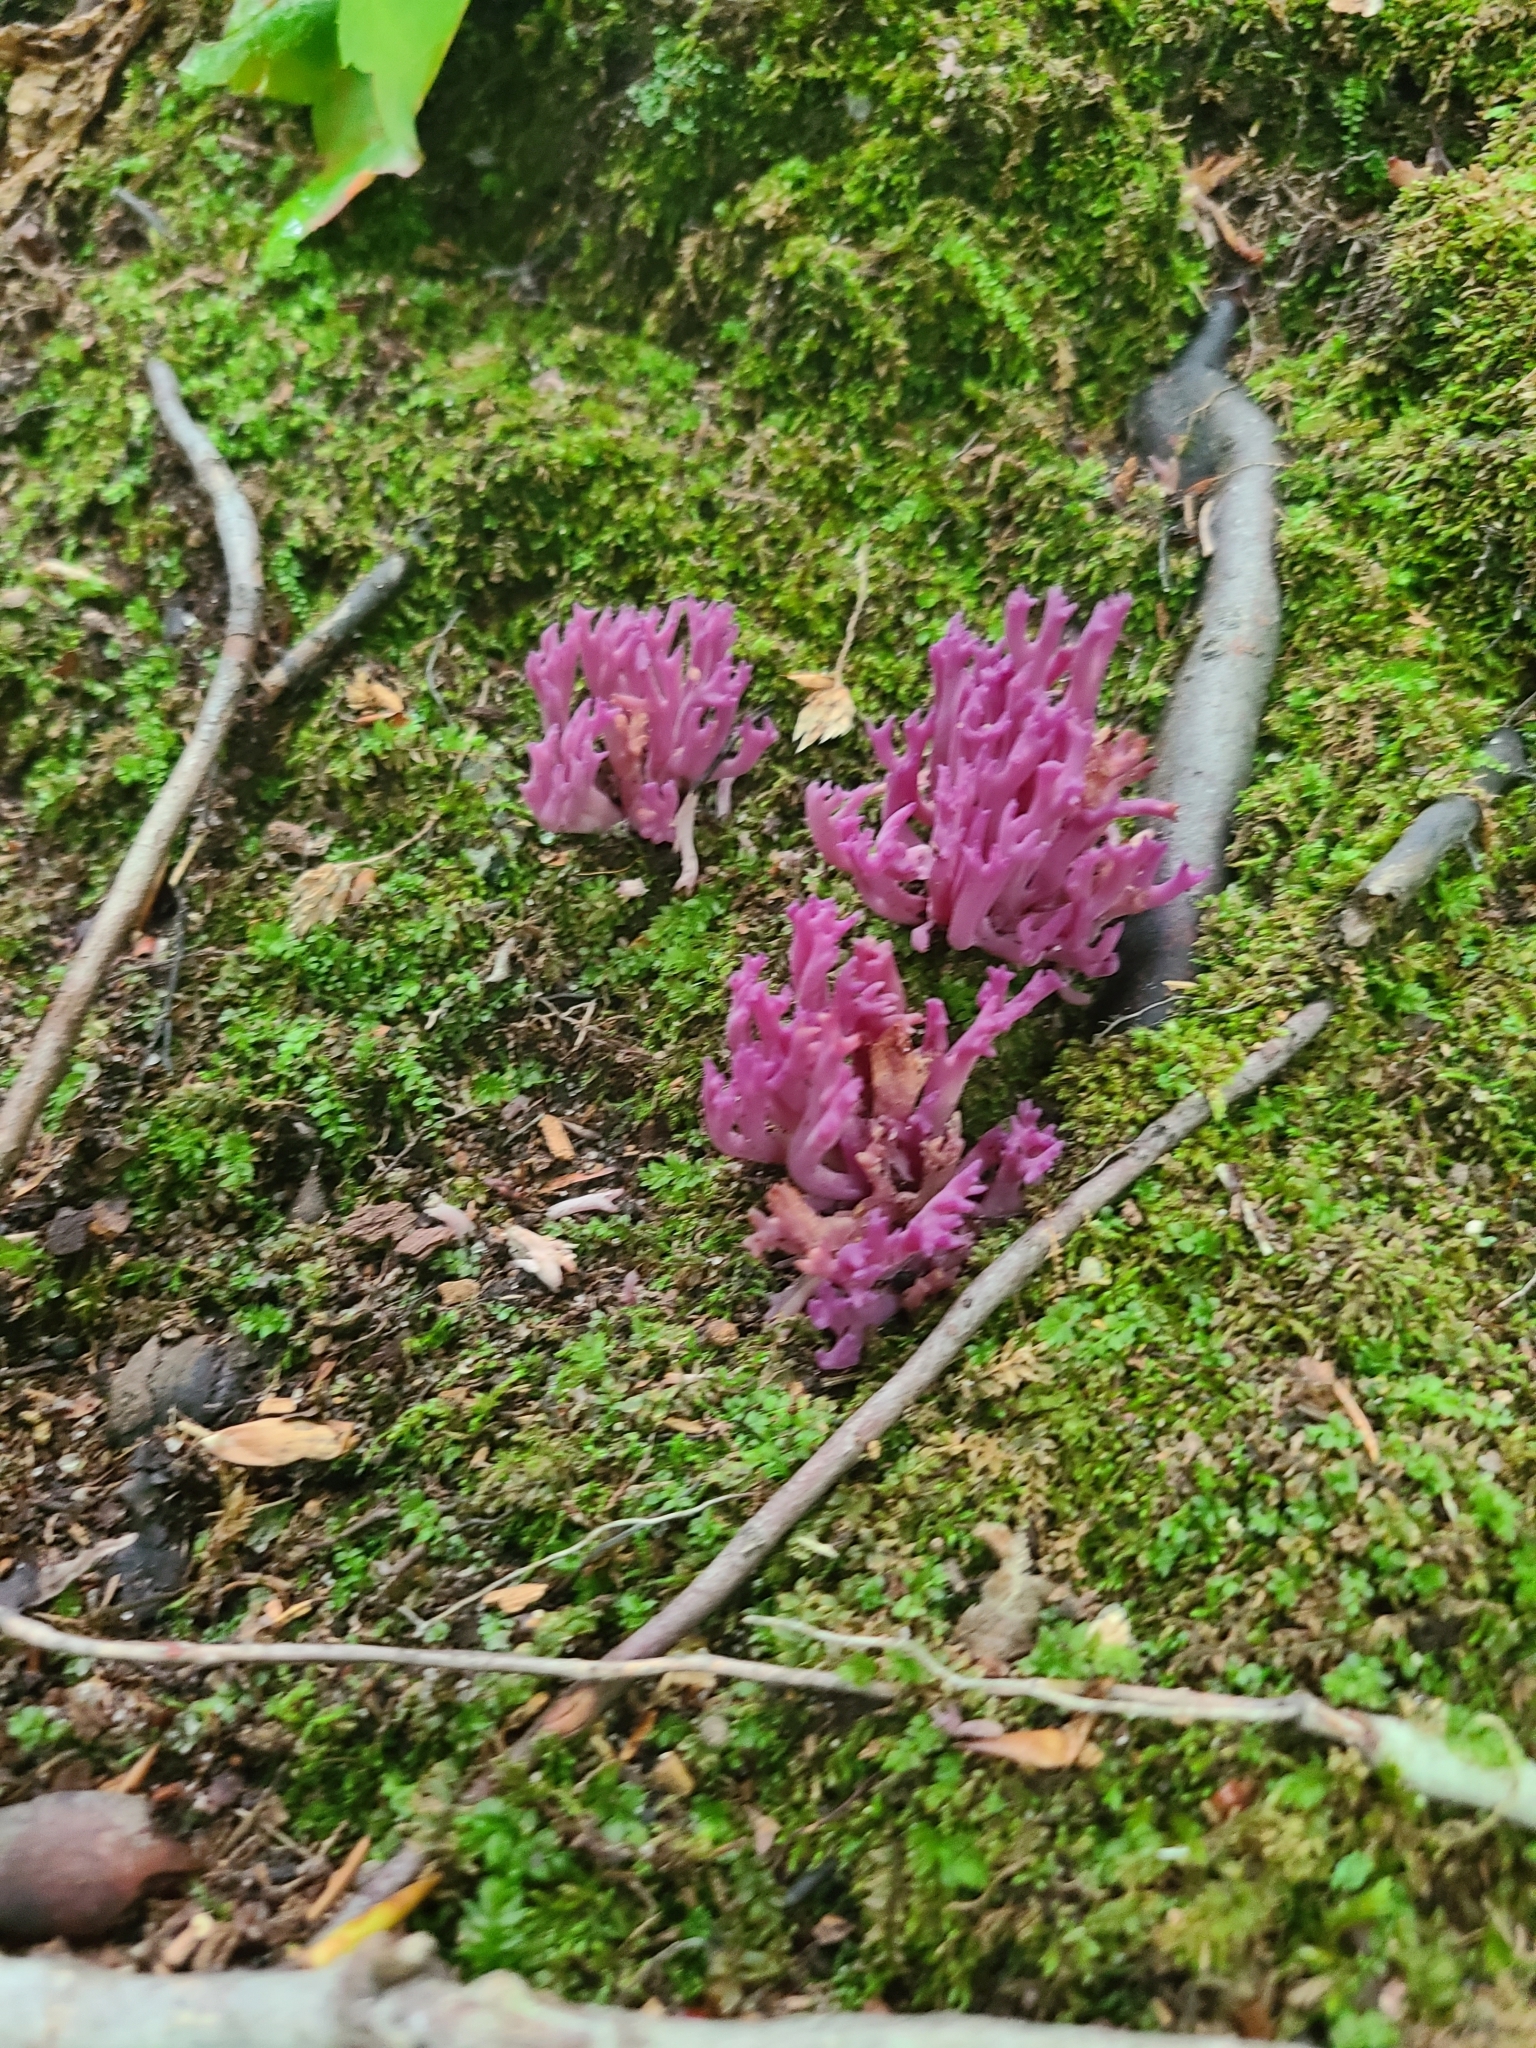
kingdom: Fungi
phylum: Basidiomycota
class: Agaricomycetes
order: Agaricales
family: Clavariaceae
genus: Clavaria
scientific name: Clavaria zollingeri
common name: Violet coral
